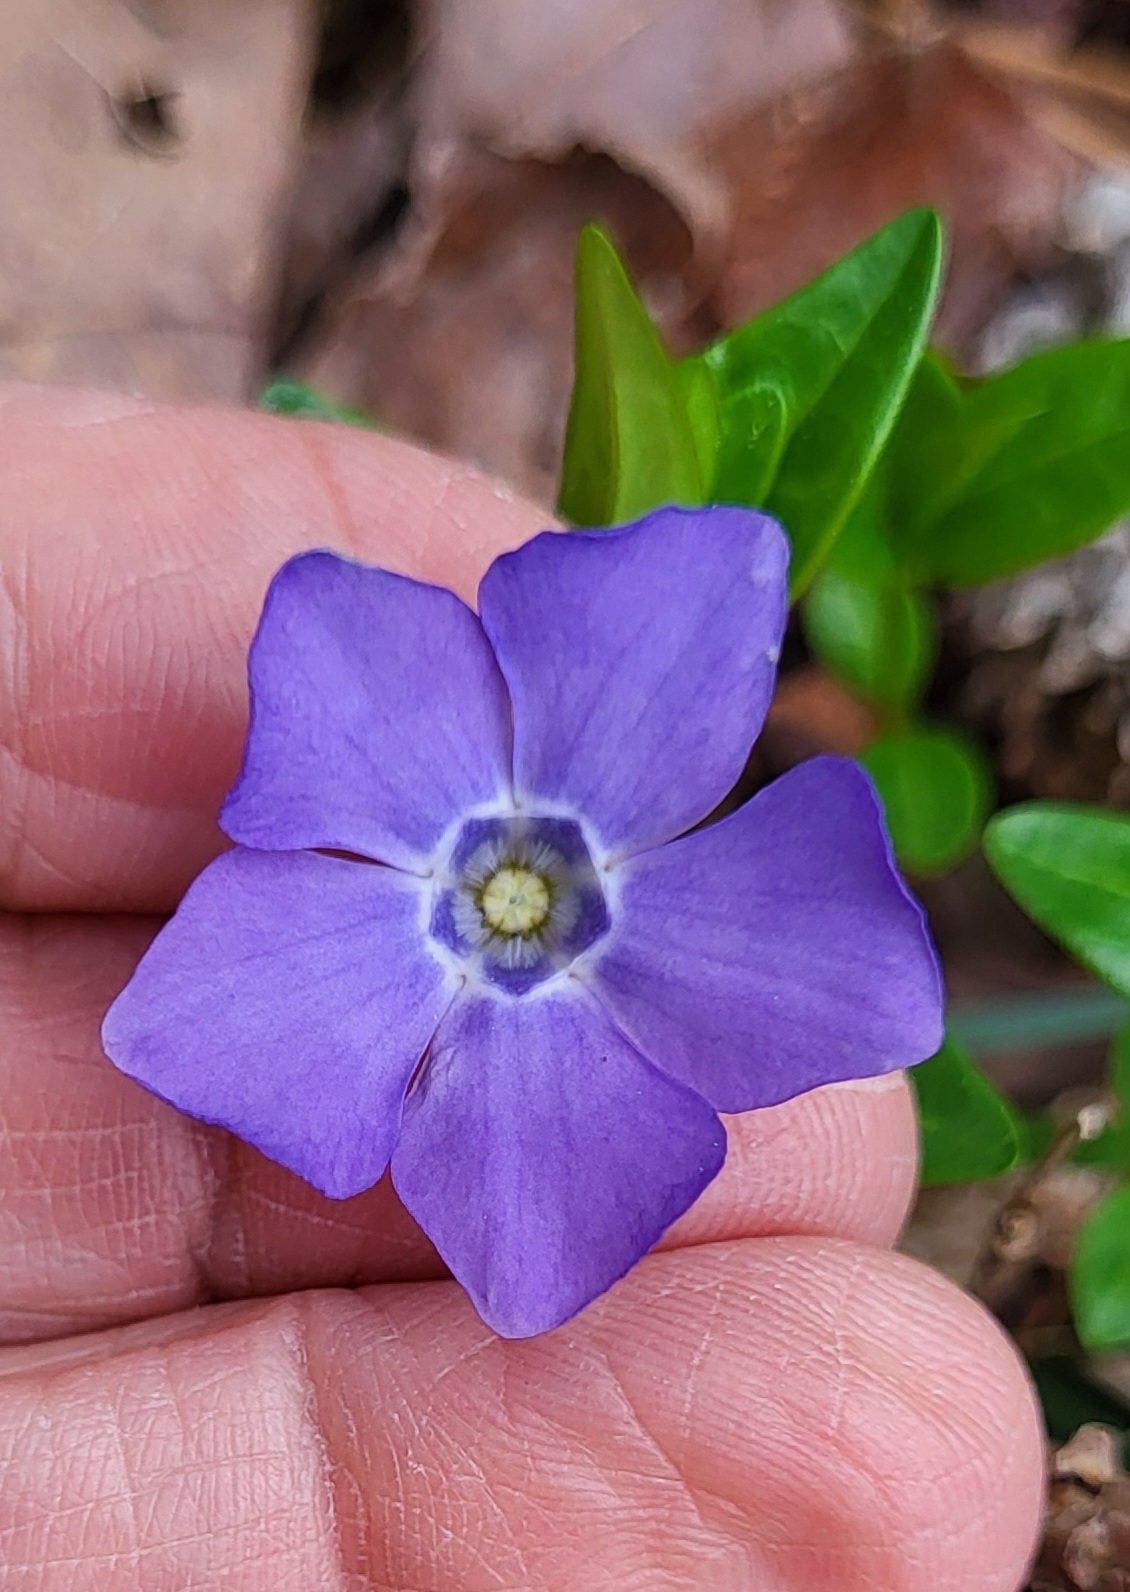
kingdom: Plantae
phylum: Tracheophyta
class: Magnoliopsida
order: Gentianales
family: Apocynaceae
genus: Vinca
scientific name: Vinca minor
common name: Lesser periwinkle
